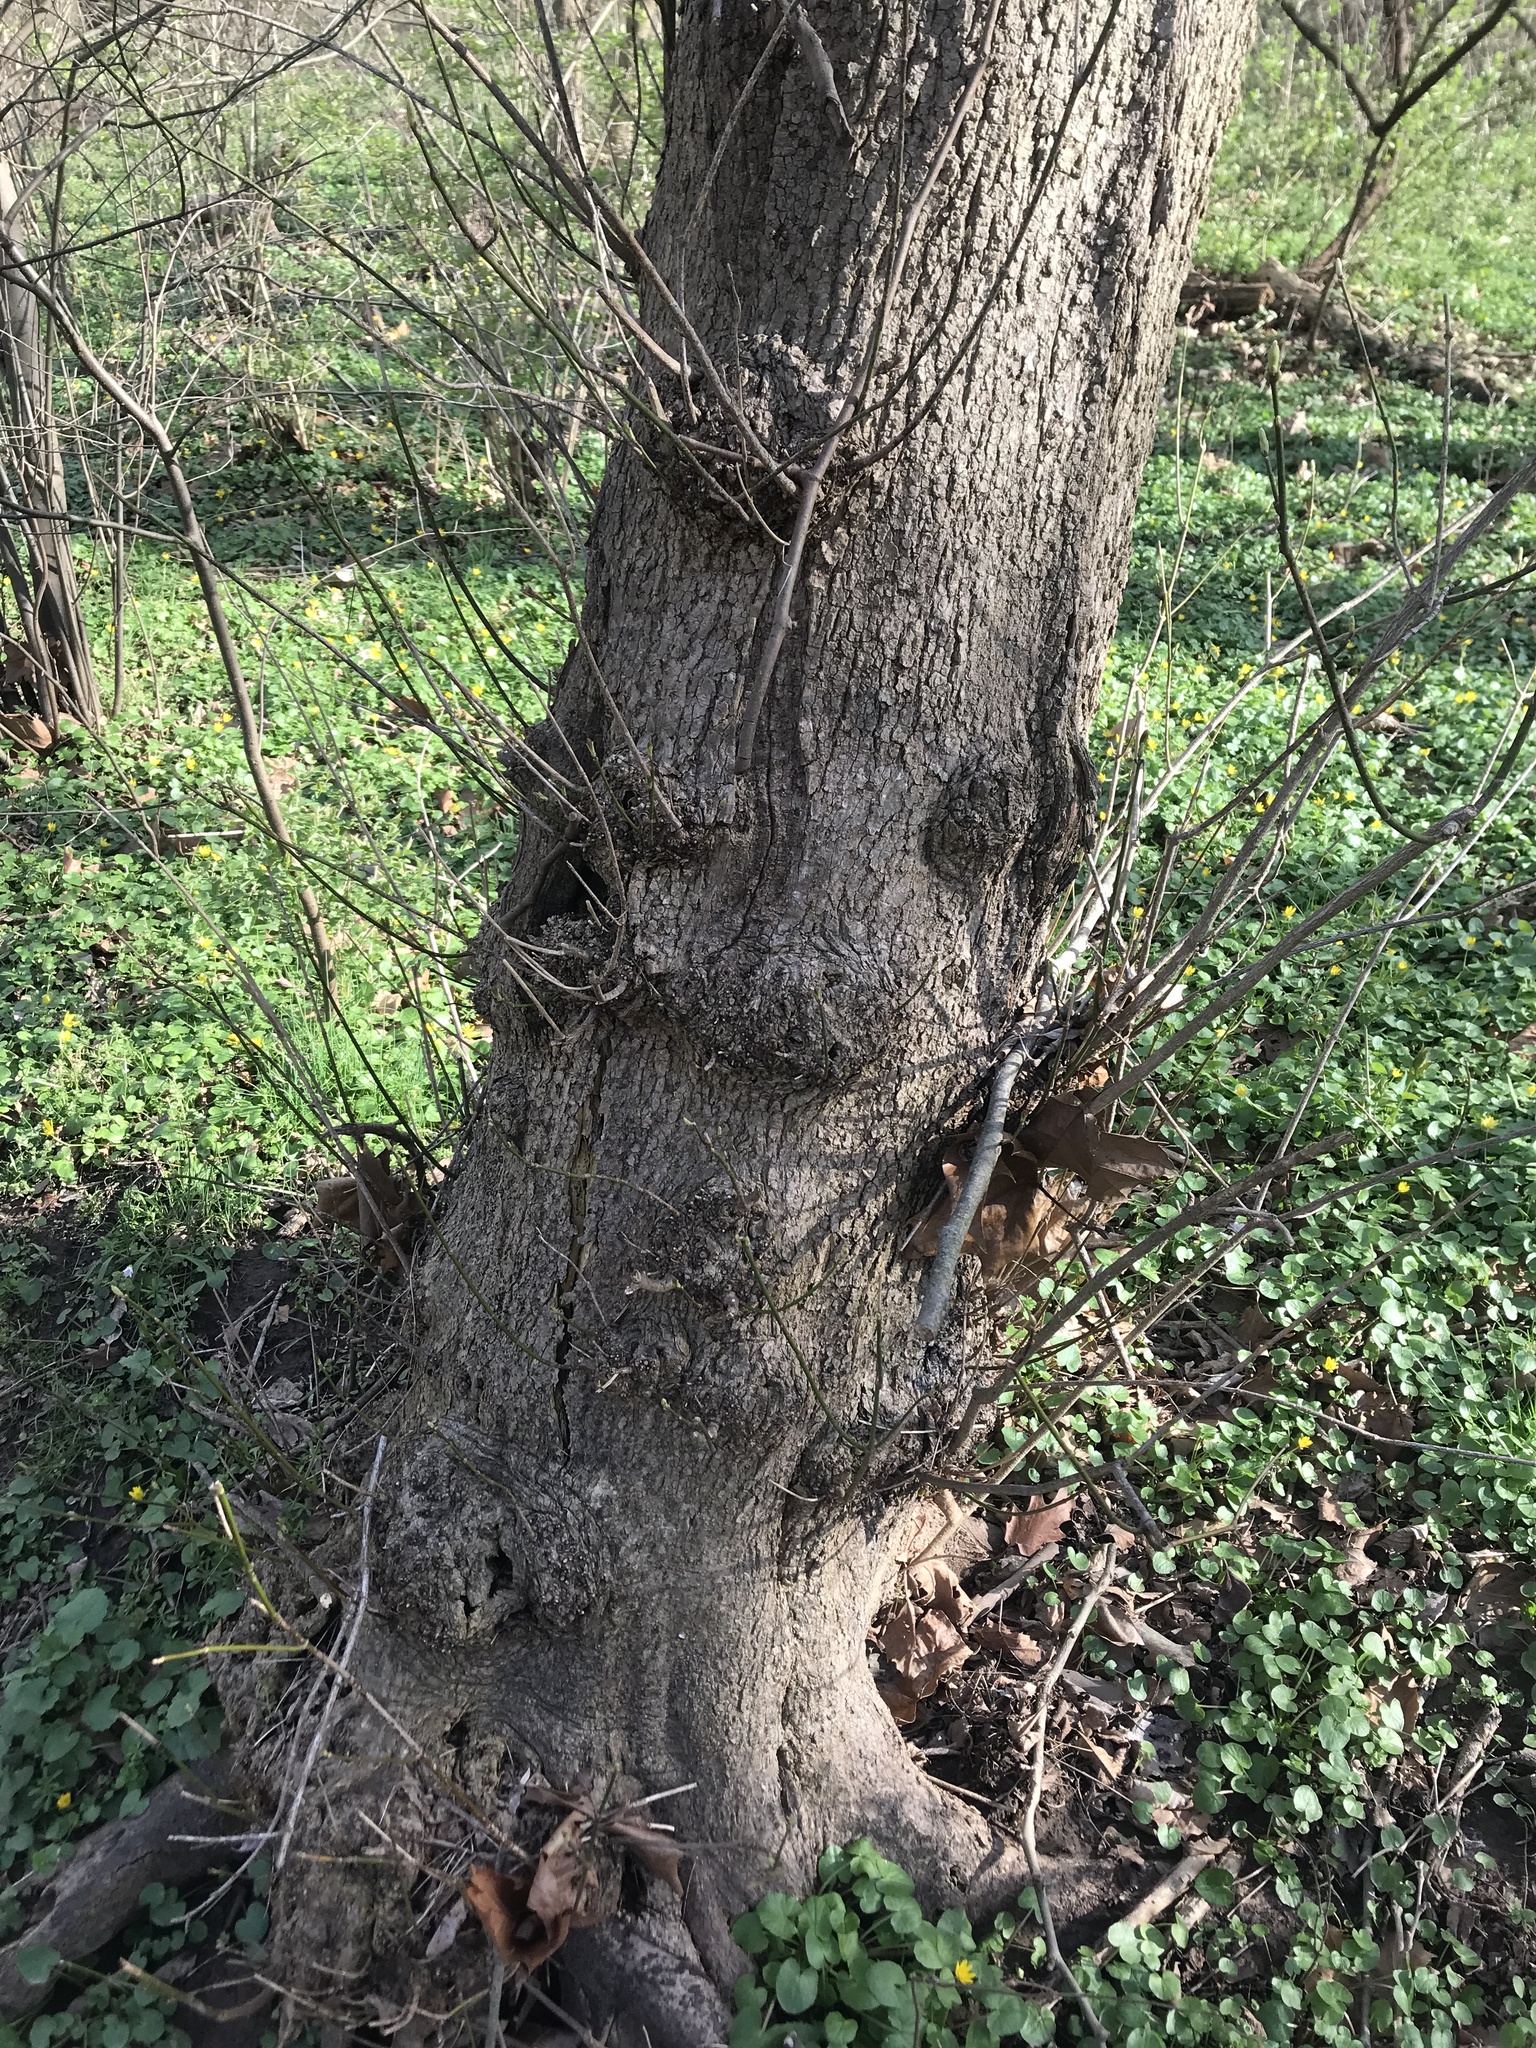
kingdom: Plantae
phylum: Tracheophyta
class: Magnoliopsida
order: Sapindales
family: Sapindaceae
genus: Acer
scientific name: Acer negundo
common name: Ashleaf maple
